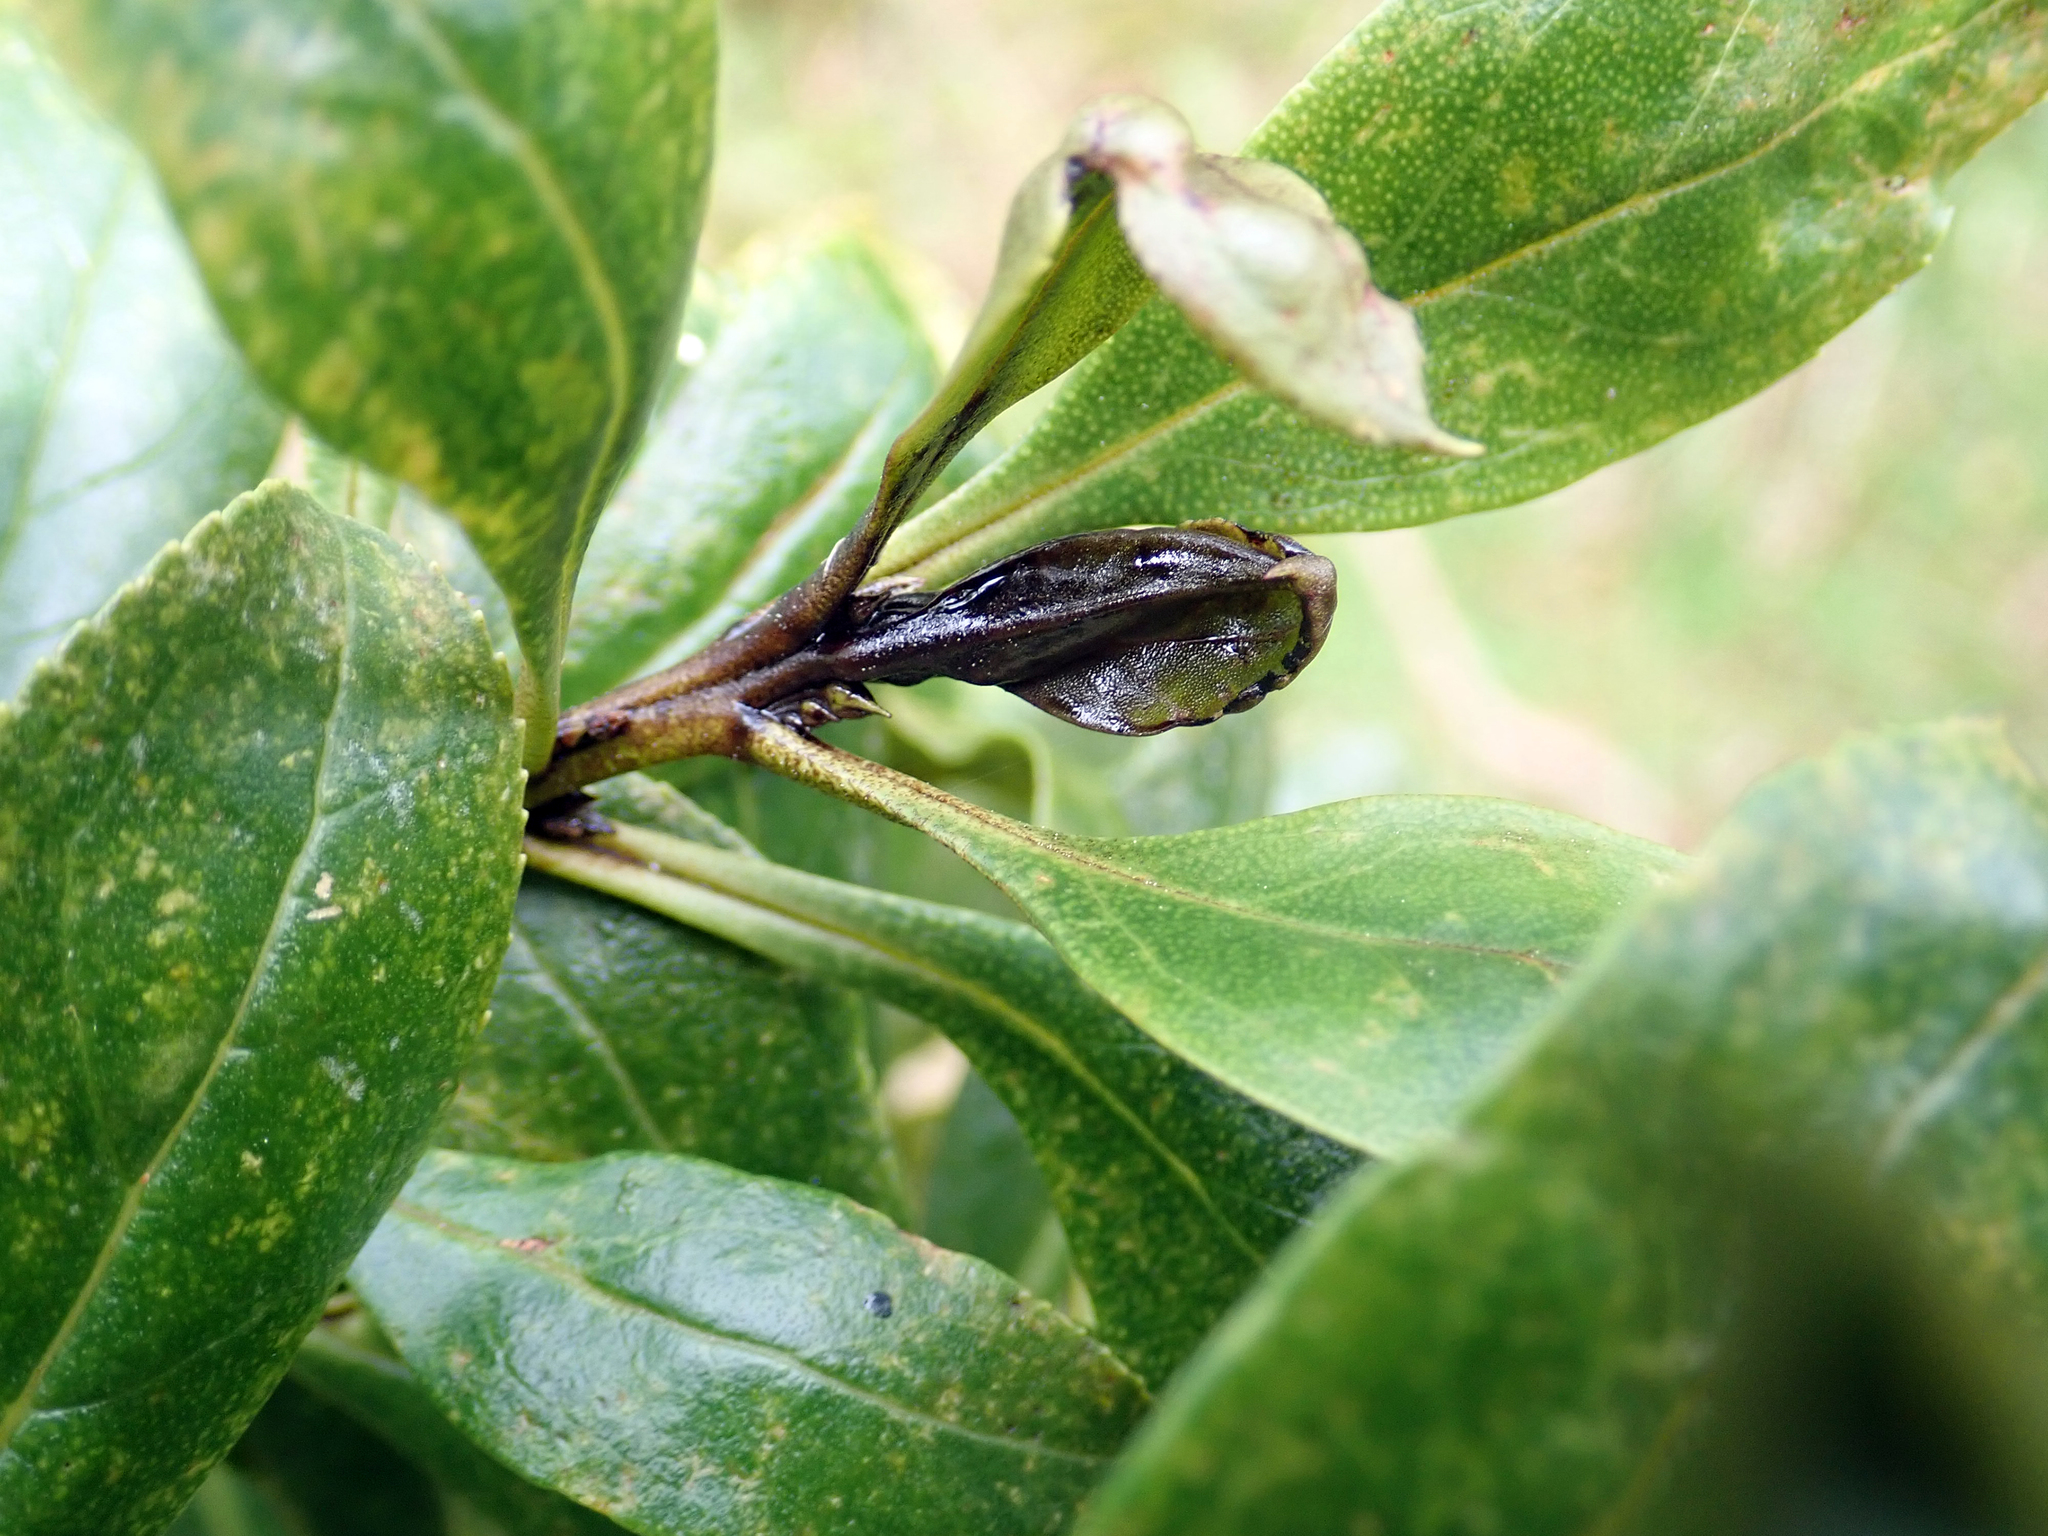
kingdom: Plantae
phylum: Tracheophyta
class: Magnoliopsida
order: Lamiales
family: Scrophulariaceae
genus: Myoporum
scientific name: Myoporum laetum
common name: Ngaio tree
